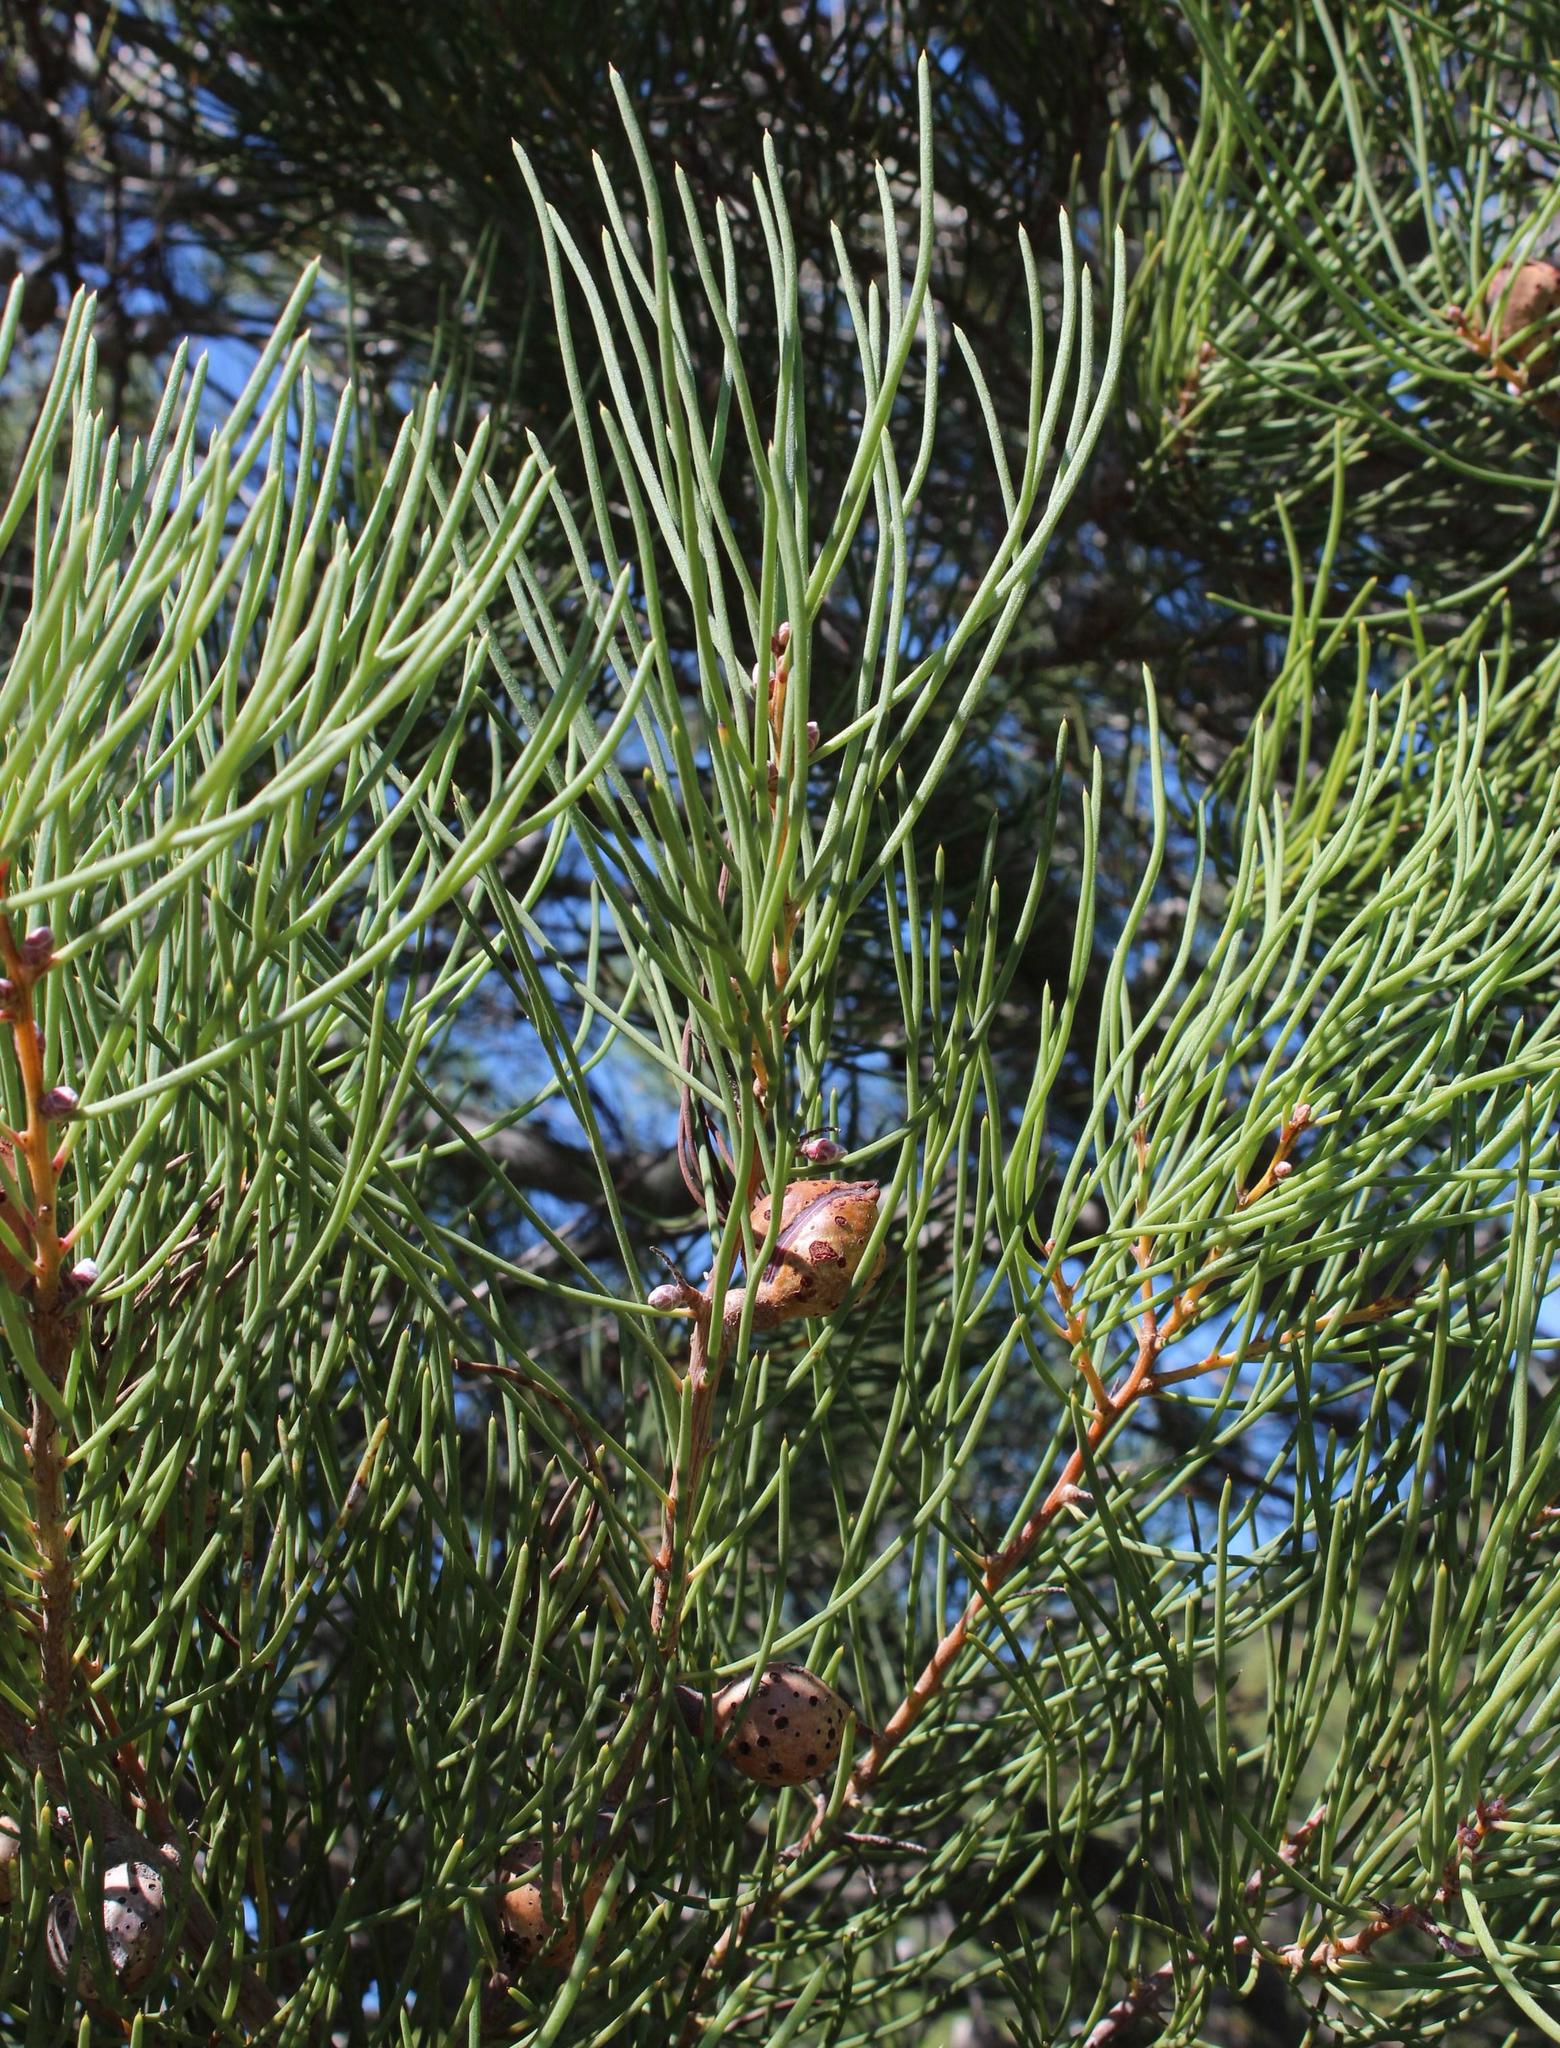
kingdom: Plantae
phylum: Tracheophyta
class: Magnoliopsida
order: Proteales
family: Proteaceae
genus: Hakea
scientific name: Hakea drupacea
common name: Sweet hakea
